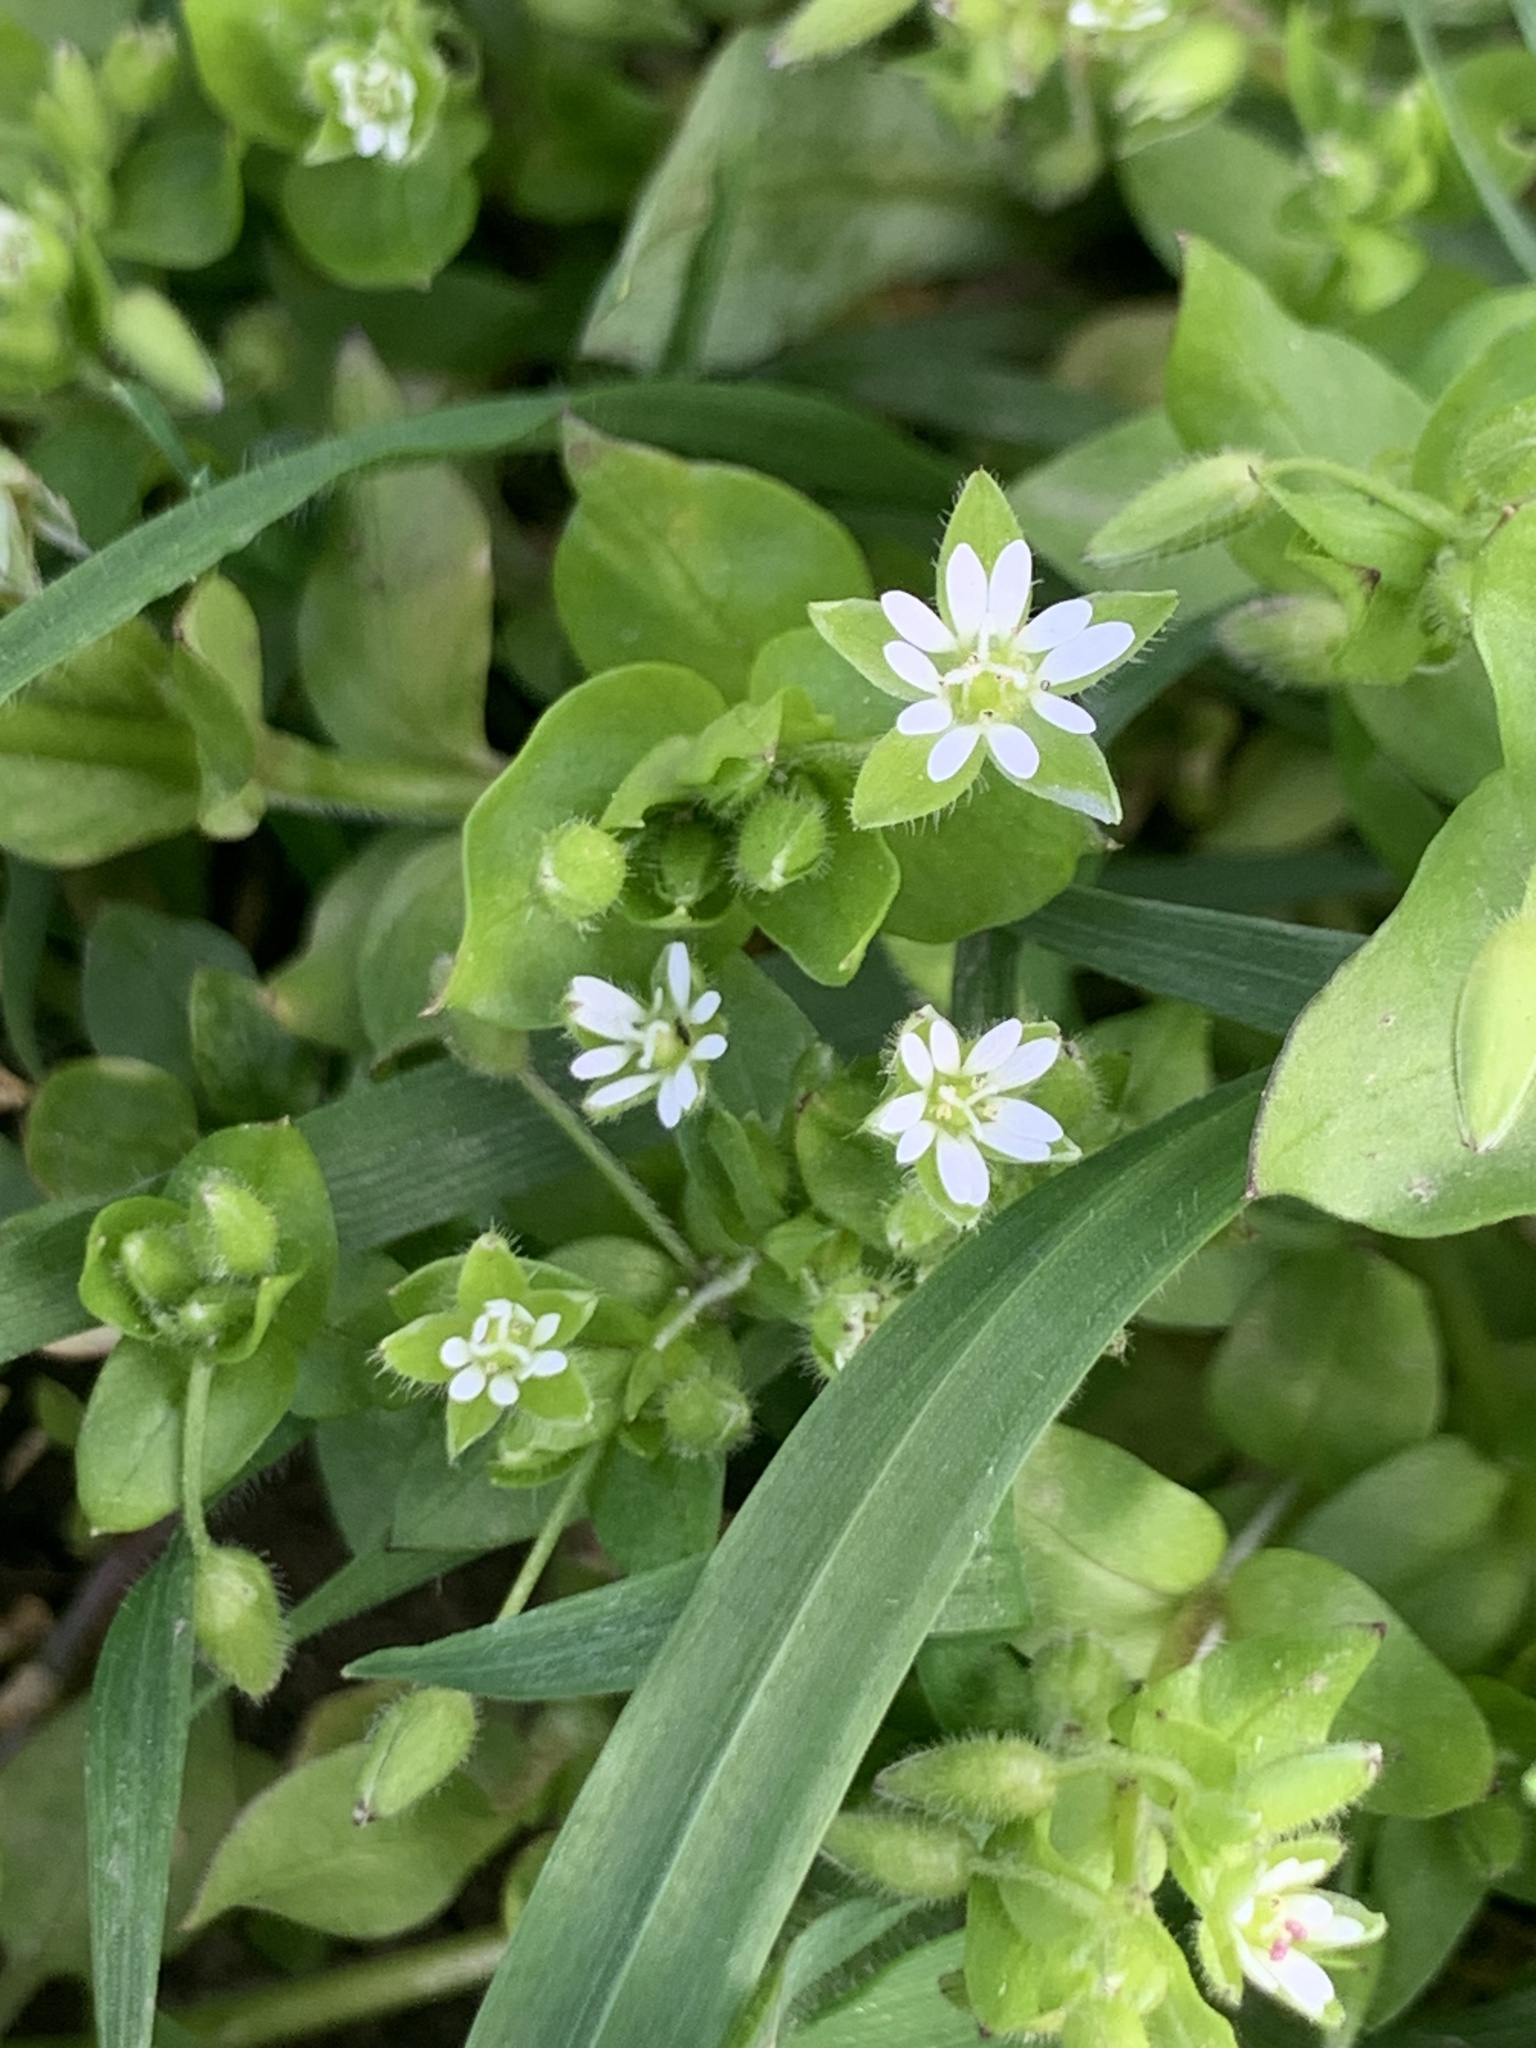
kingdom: Plantae
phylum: Tracheophyta
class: Magnoliopsida
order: Caryophyllales
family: Caryophyllaceae
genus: Stellaria
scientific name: Stellaria media
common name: Common chickweed
